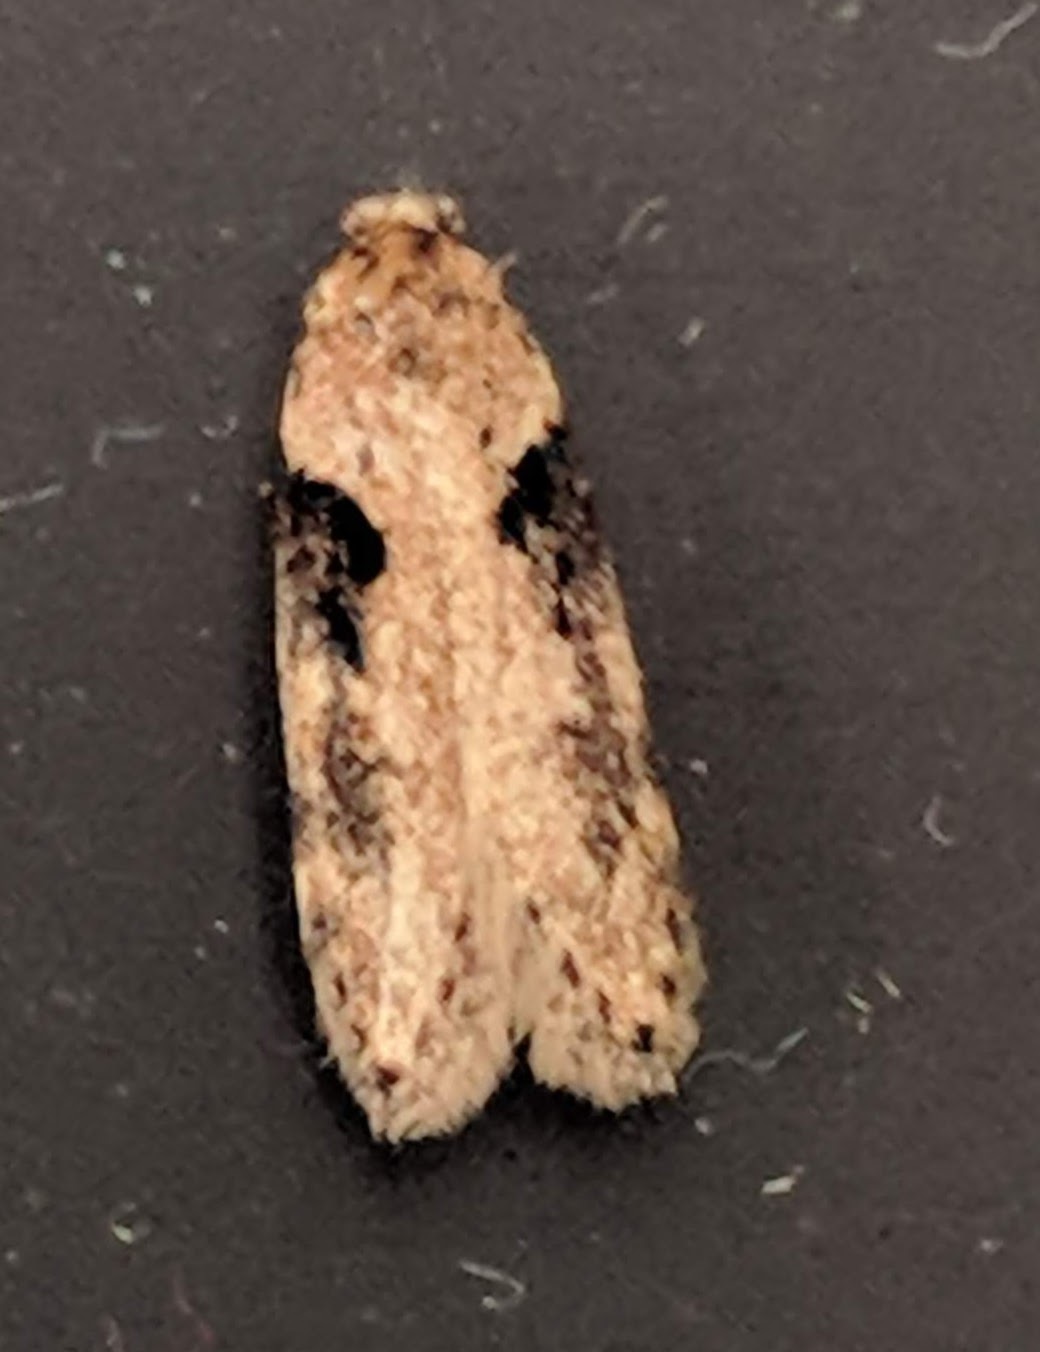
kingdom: Animalia
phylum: Arthropoda
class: Insecta
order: Lepidoptera
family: Gelechiidae
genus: Chionodes
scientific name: Chionodes mediofuscella
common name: Black-smudged chionodes moth
